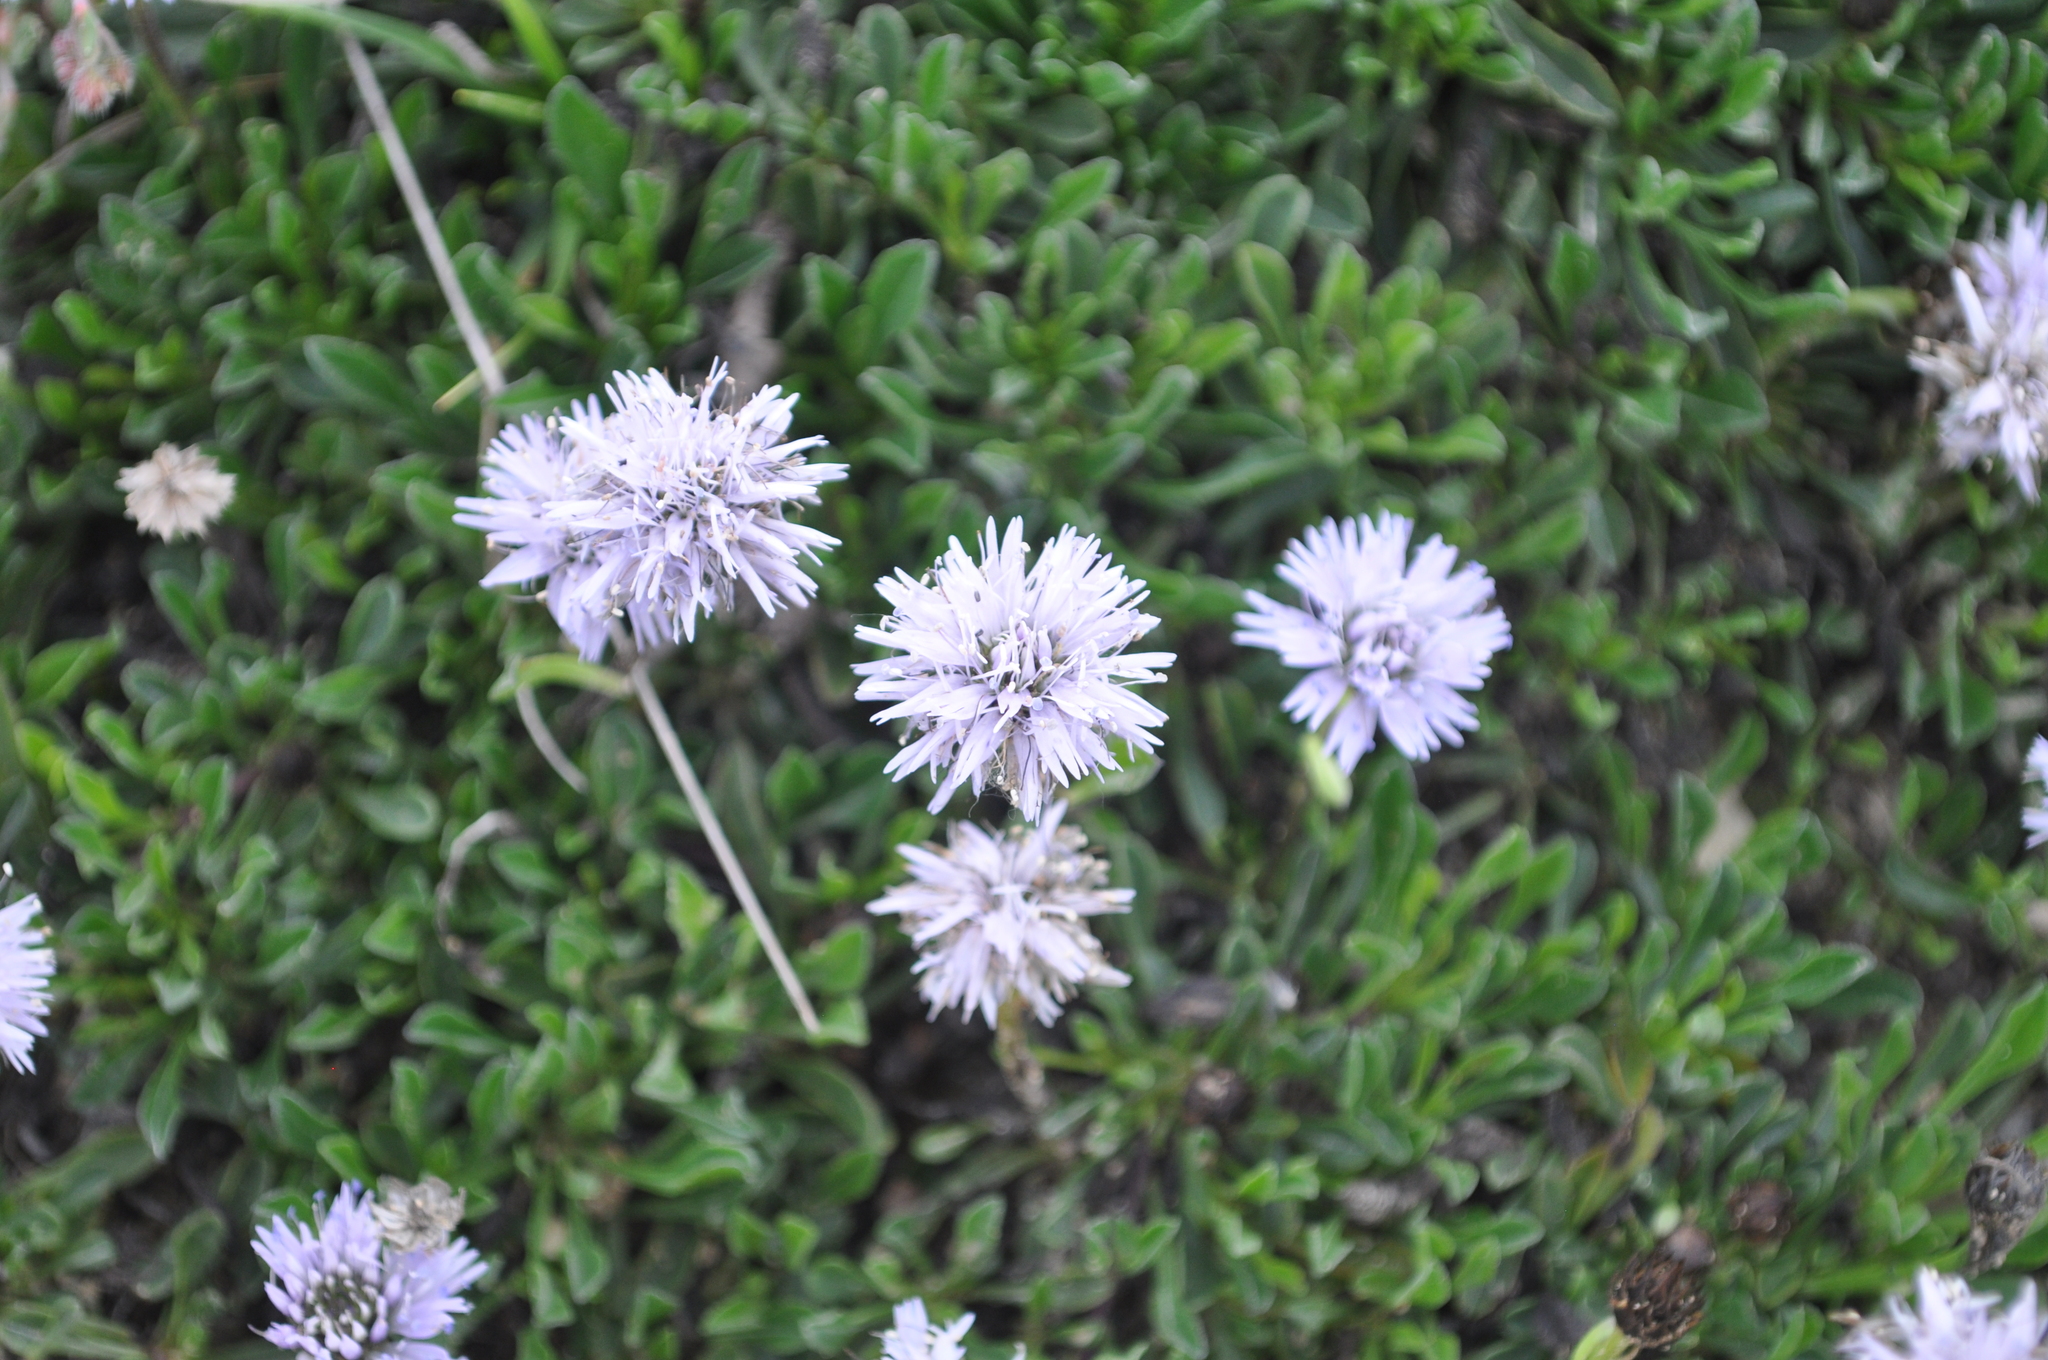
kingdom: Plantae
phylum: Tracheophyta
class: Magnoliopsida
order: Lamiales
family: Plantaginaceae
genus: Globularia
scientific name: Globularia cordifolia
